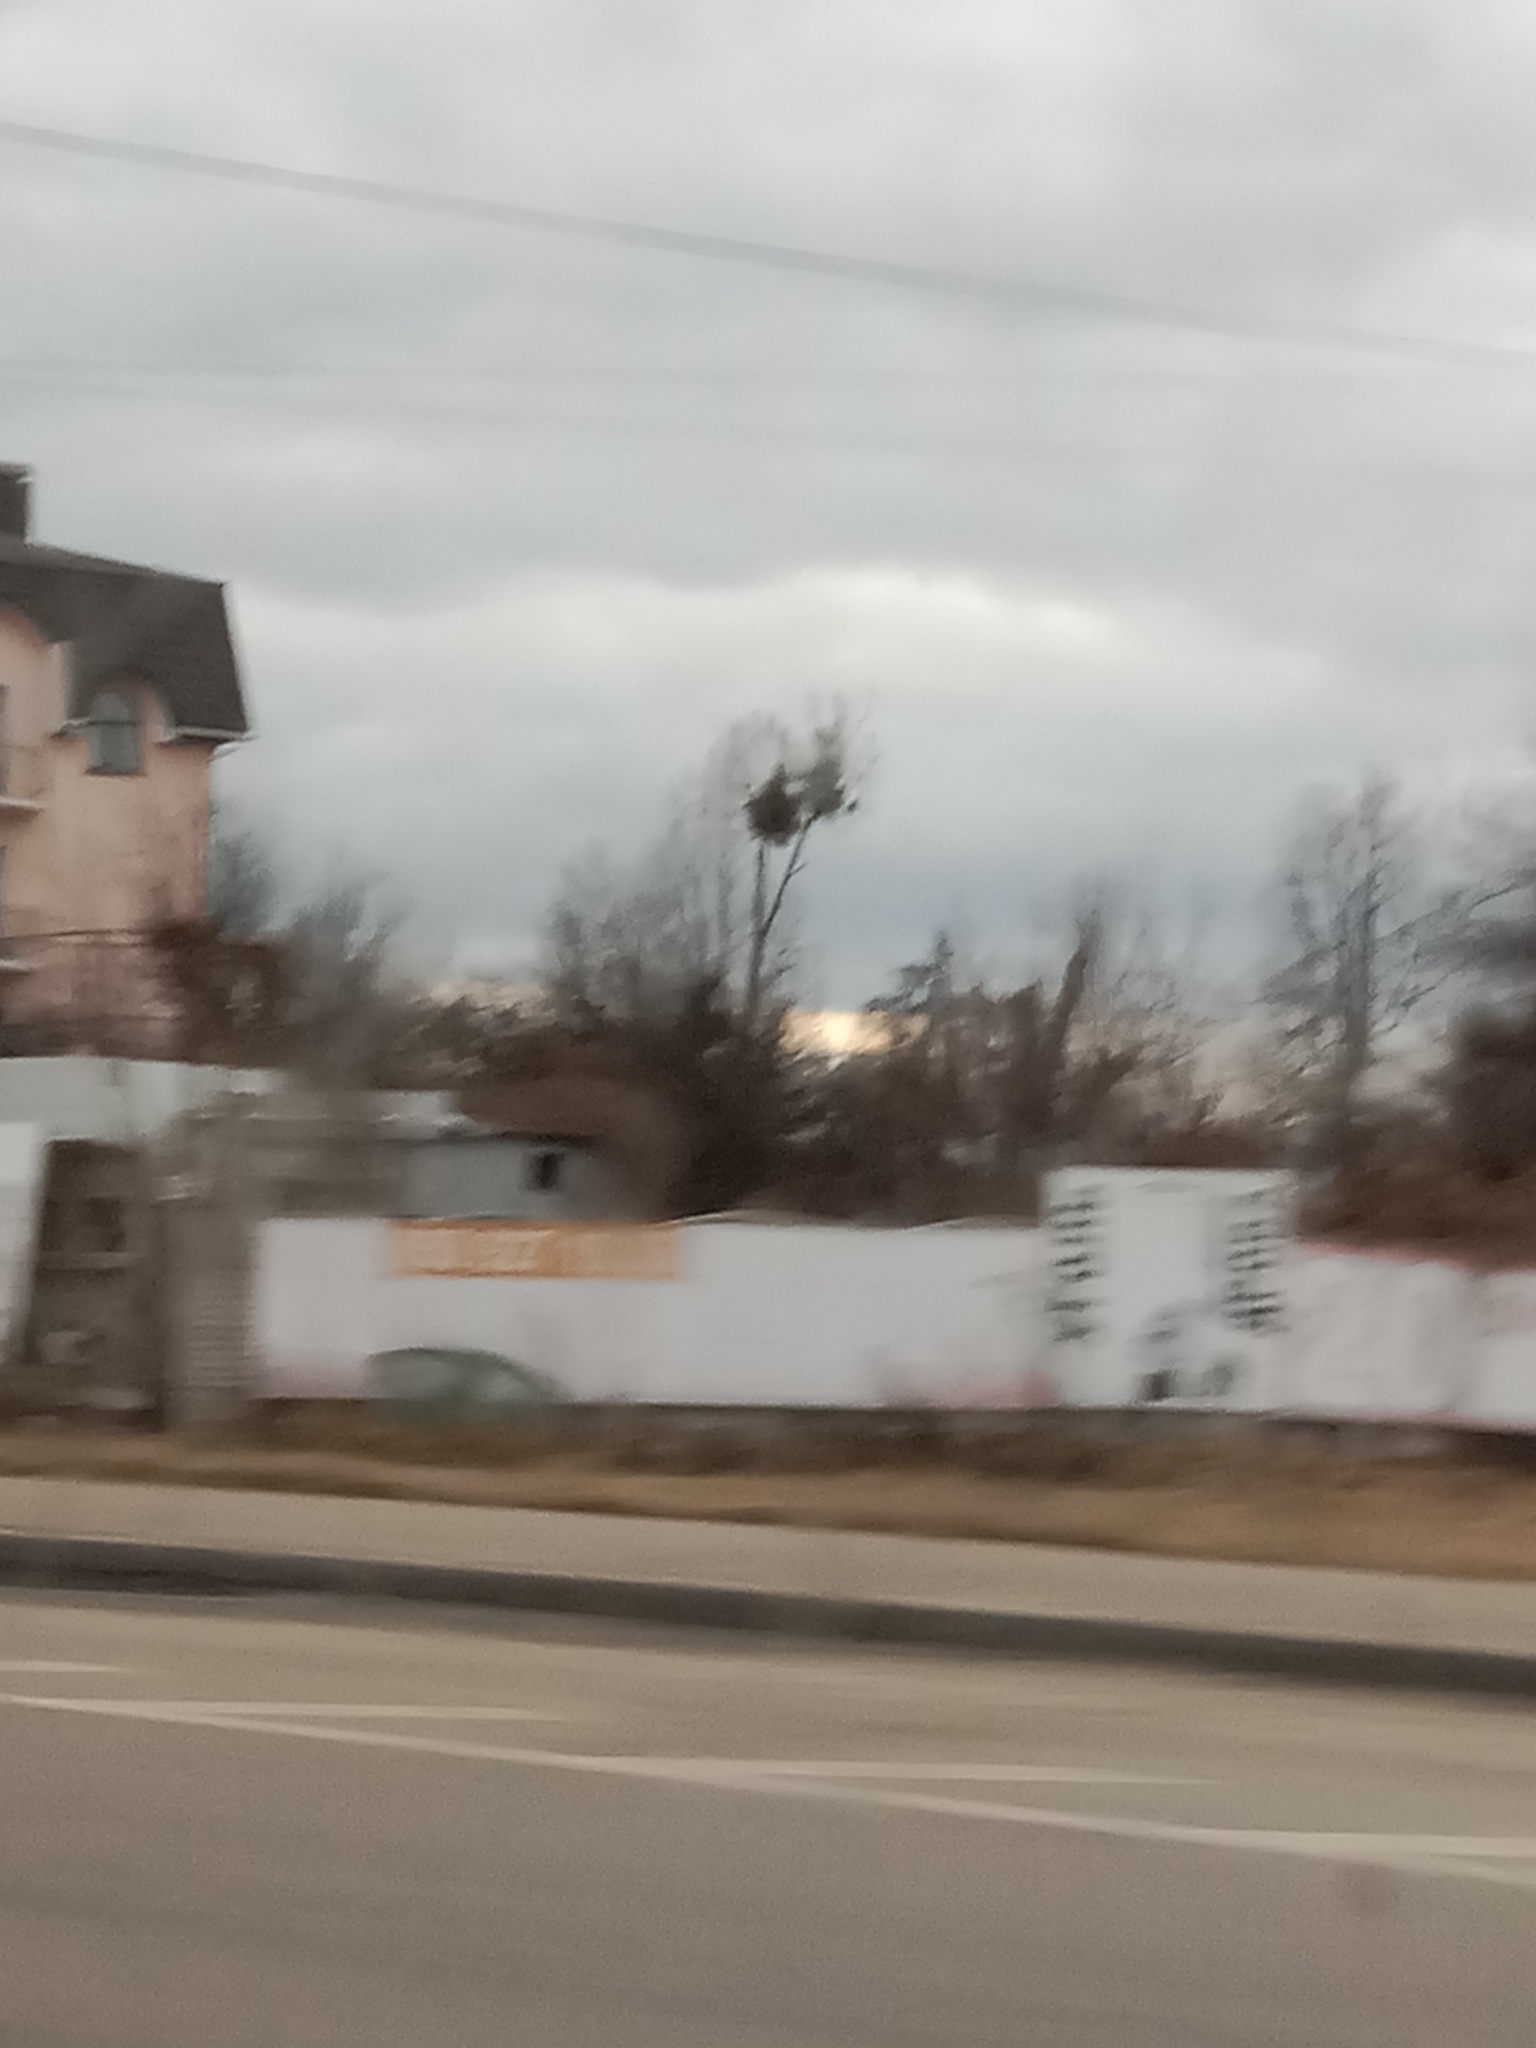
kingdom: Plantae
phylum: Tracheophyta
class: Magnoliopsida
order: Santalales
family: Viscaceae
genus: Viscum
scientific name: Viscum album
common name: Mistletoe
